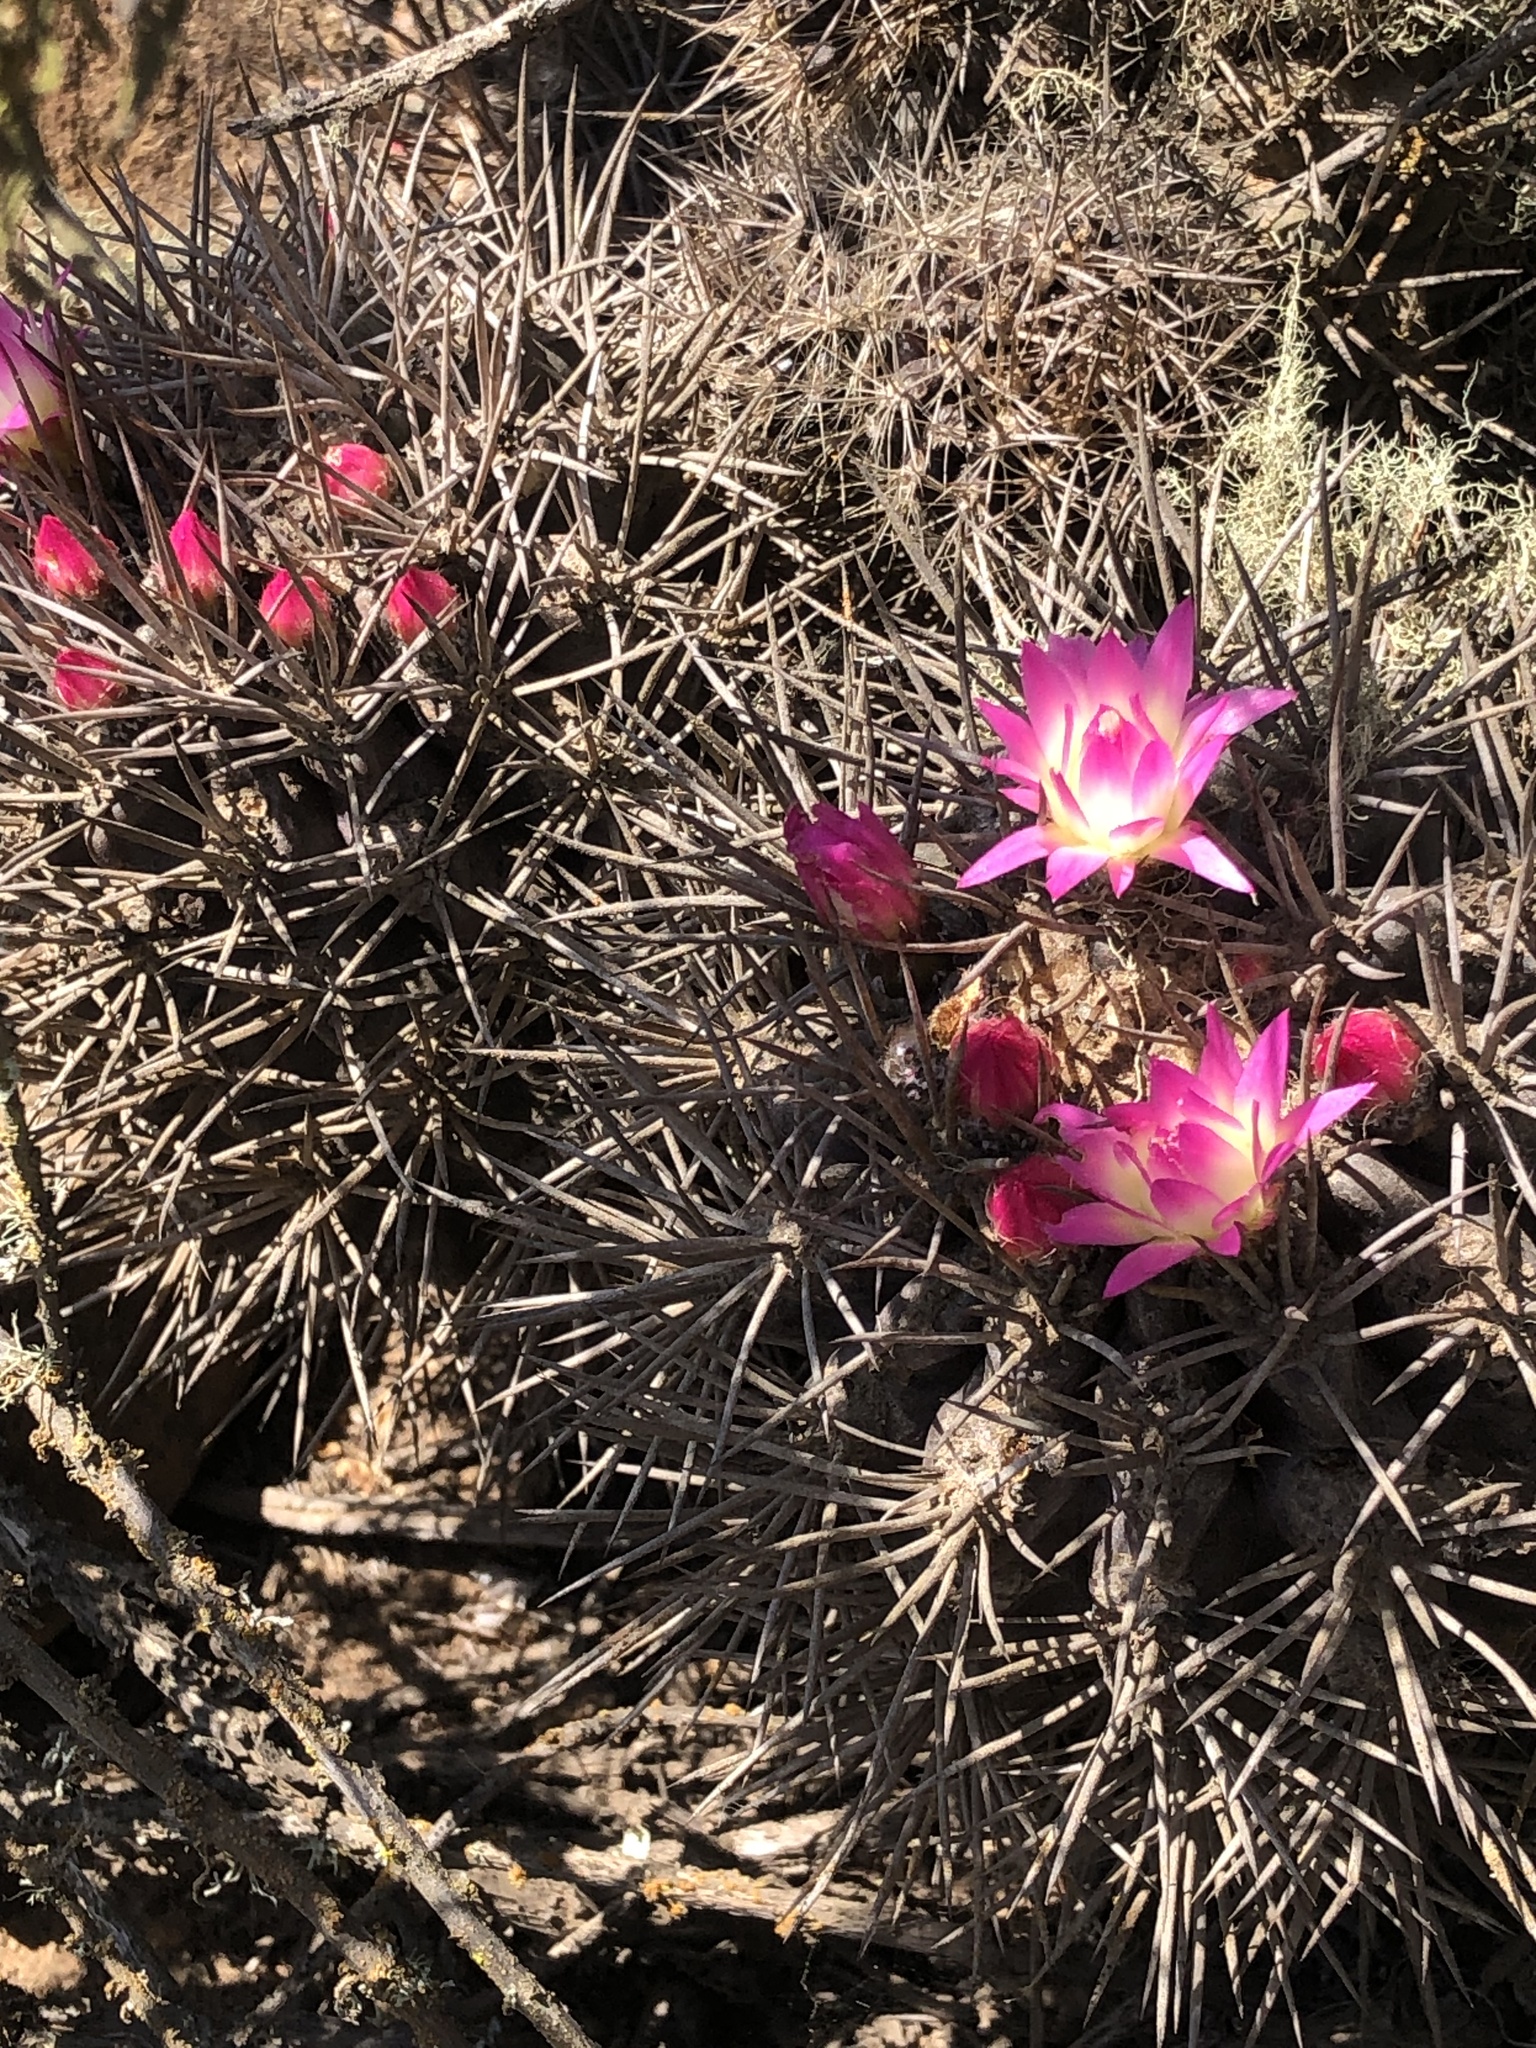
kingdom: Plantae
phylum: Tracheophyta
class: Magnoliopsida
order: Caryophyllales
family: Cactaceae
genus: Eriosyce
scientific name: Eriosyce nigrihorrida
